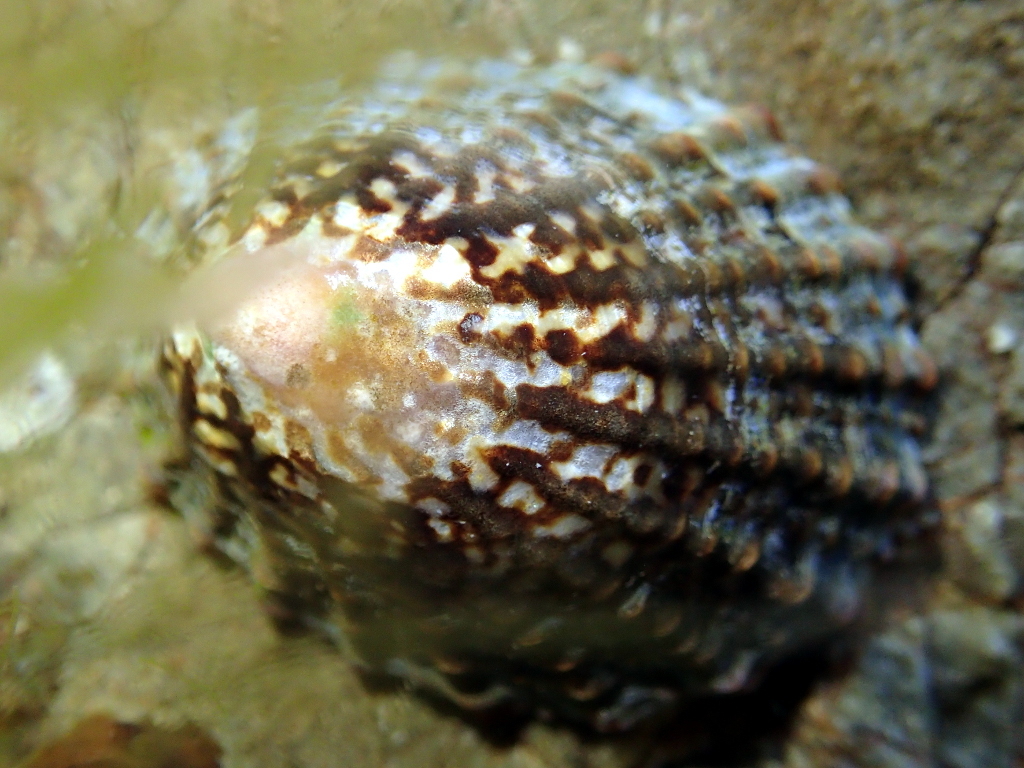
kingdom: Animalia
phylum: Mollusca
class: Gastropoda
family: Nacellidae
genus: Cellana
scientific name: Cellana denticulata
